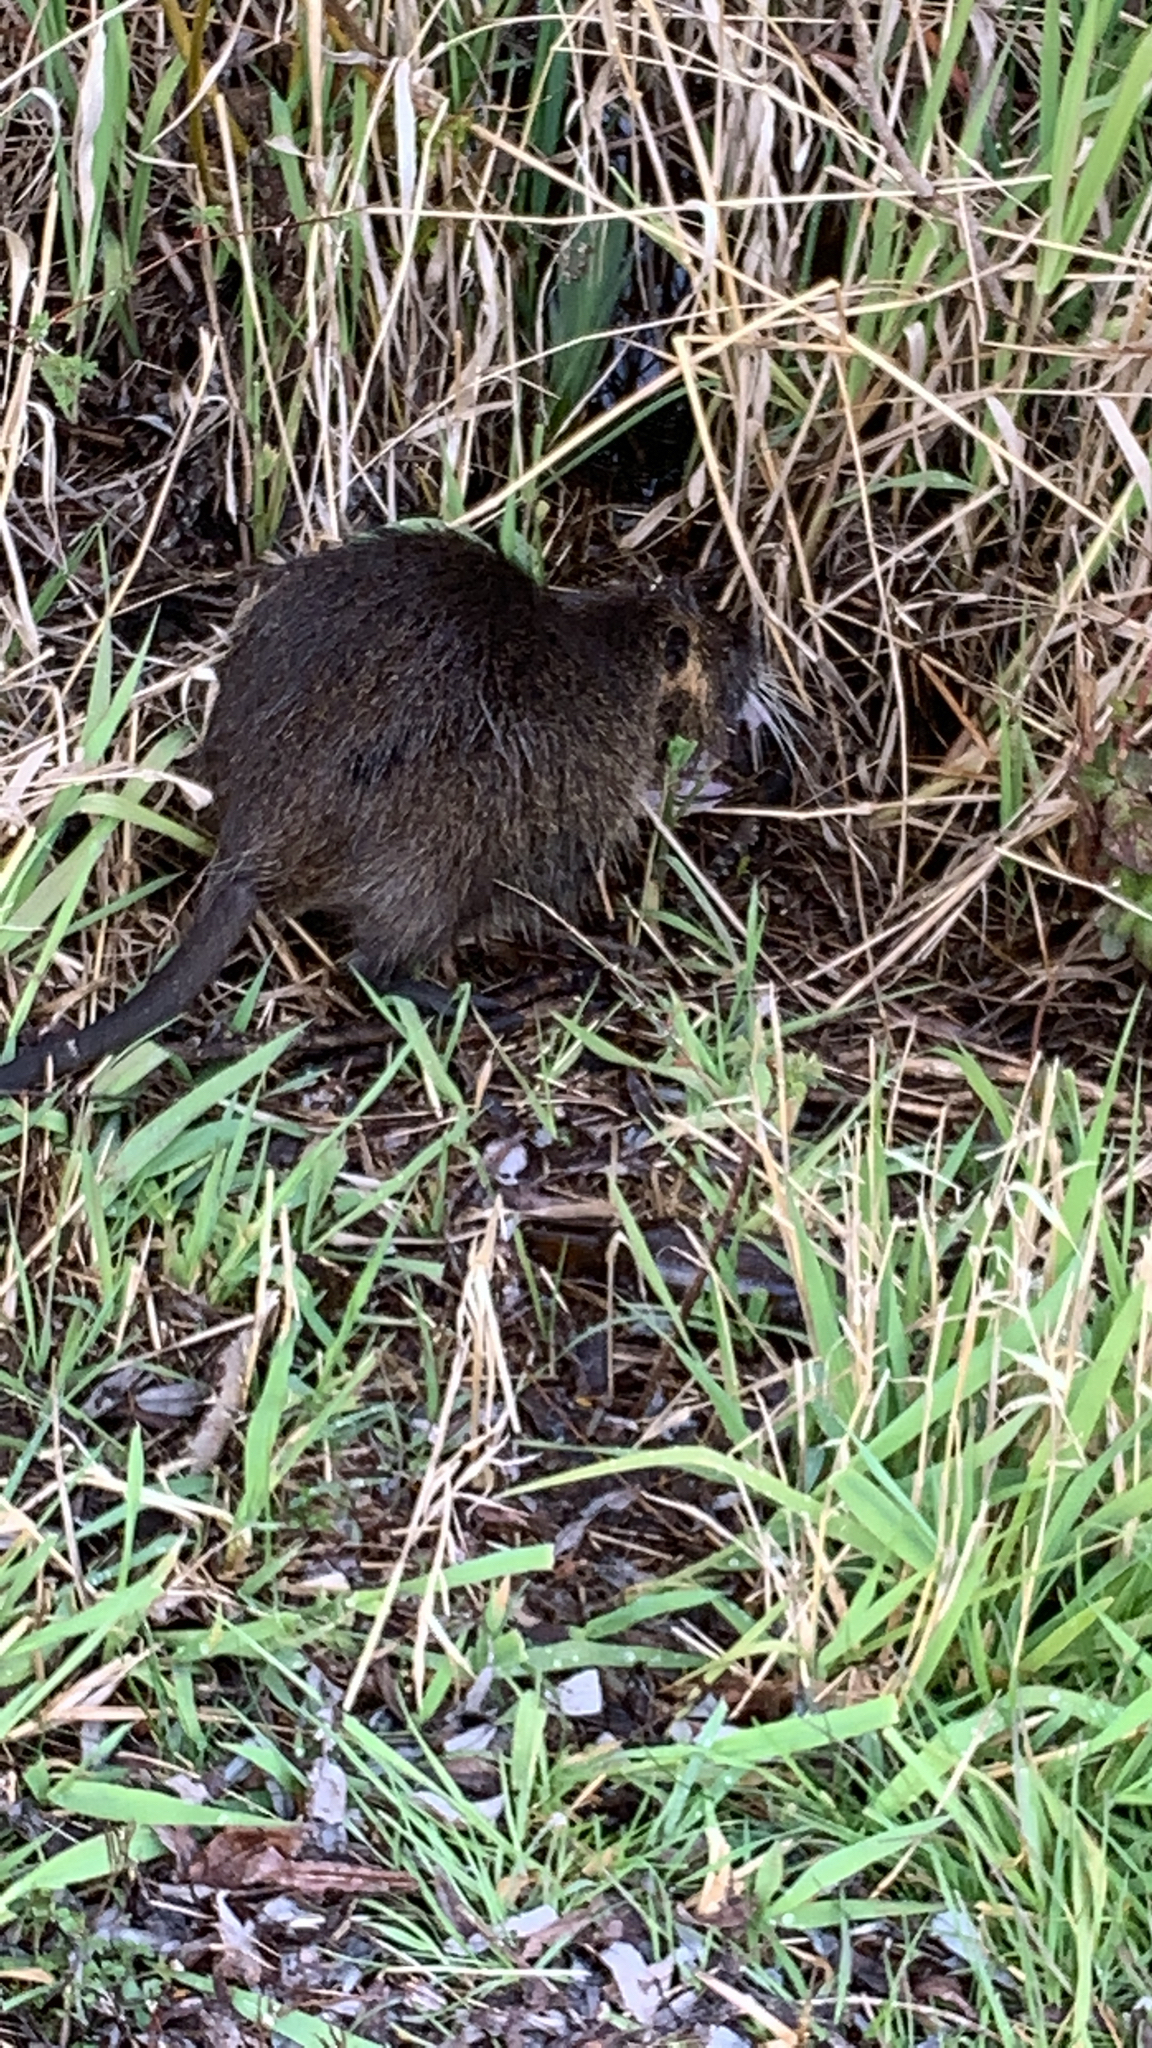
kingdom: Animalia
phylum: Chordata
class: Mammalia
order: Rodentia
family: Myocastoridae
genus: Myocastor
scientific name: Myocastor coypus
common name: Coypu
